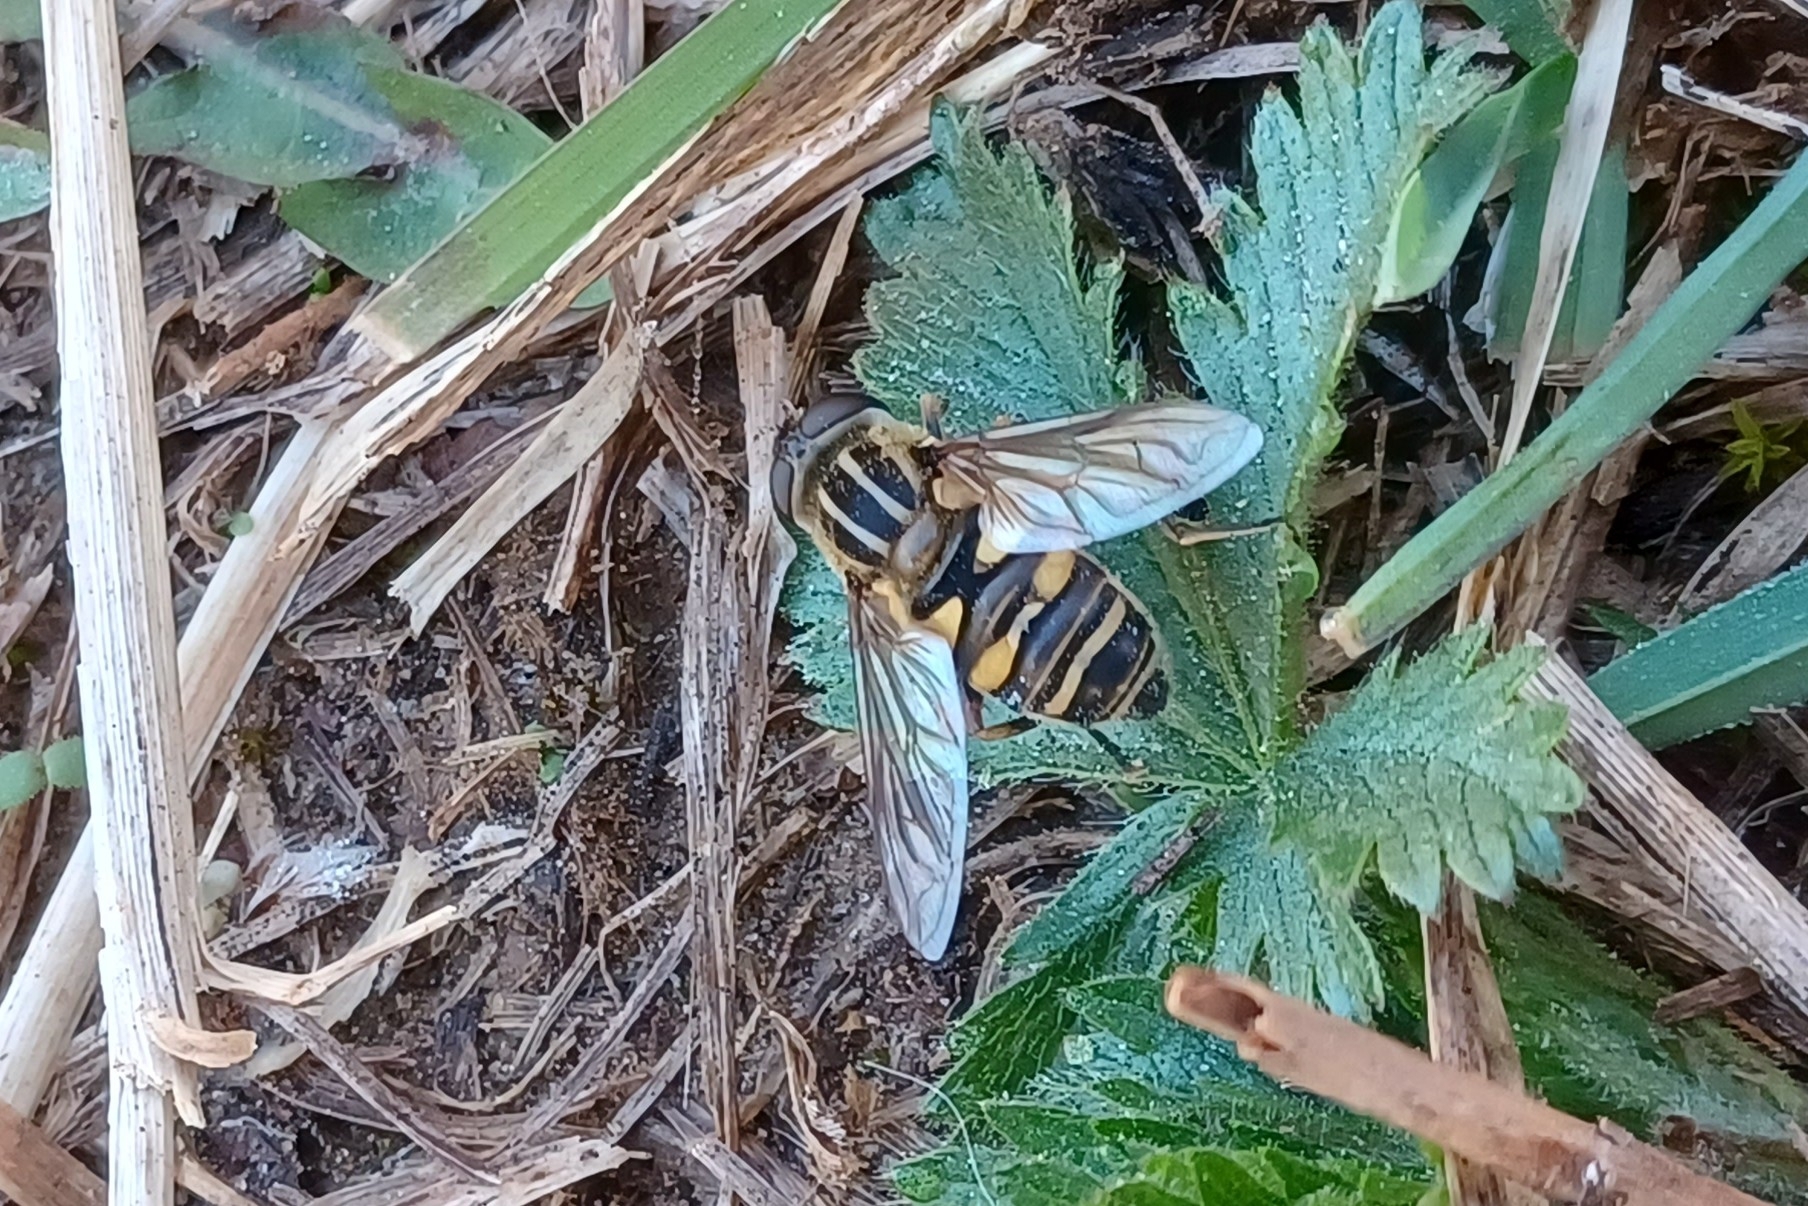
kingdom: Animalia
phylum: Arthropoda
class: Insecta
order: Diptera
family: Syrphidae
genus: Helophilus
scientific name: Helophilus fasciatus
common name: Narrow-headed marsh fly
